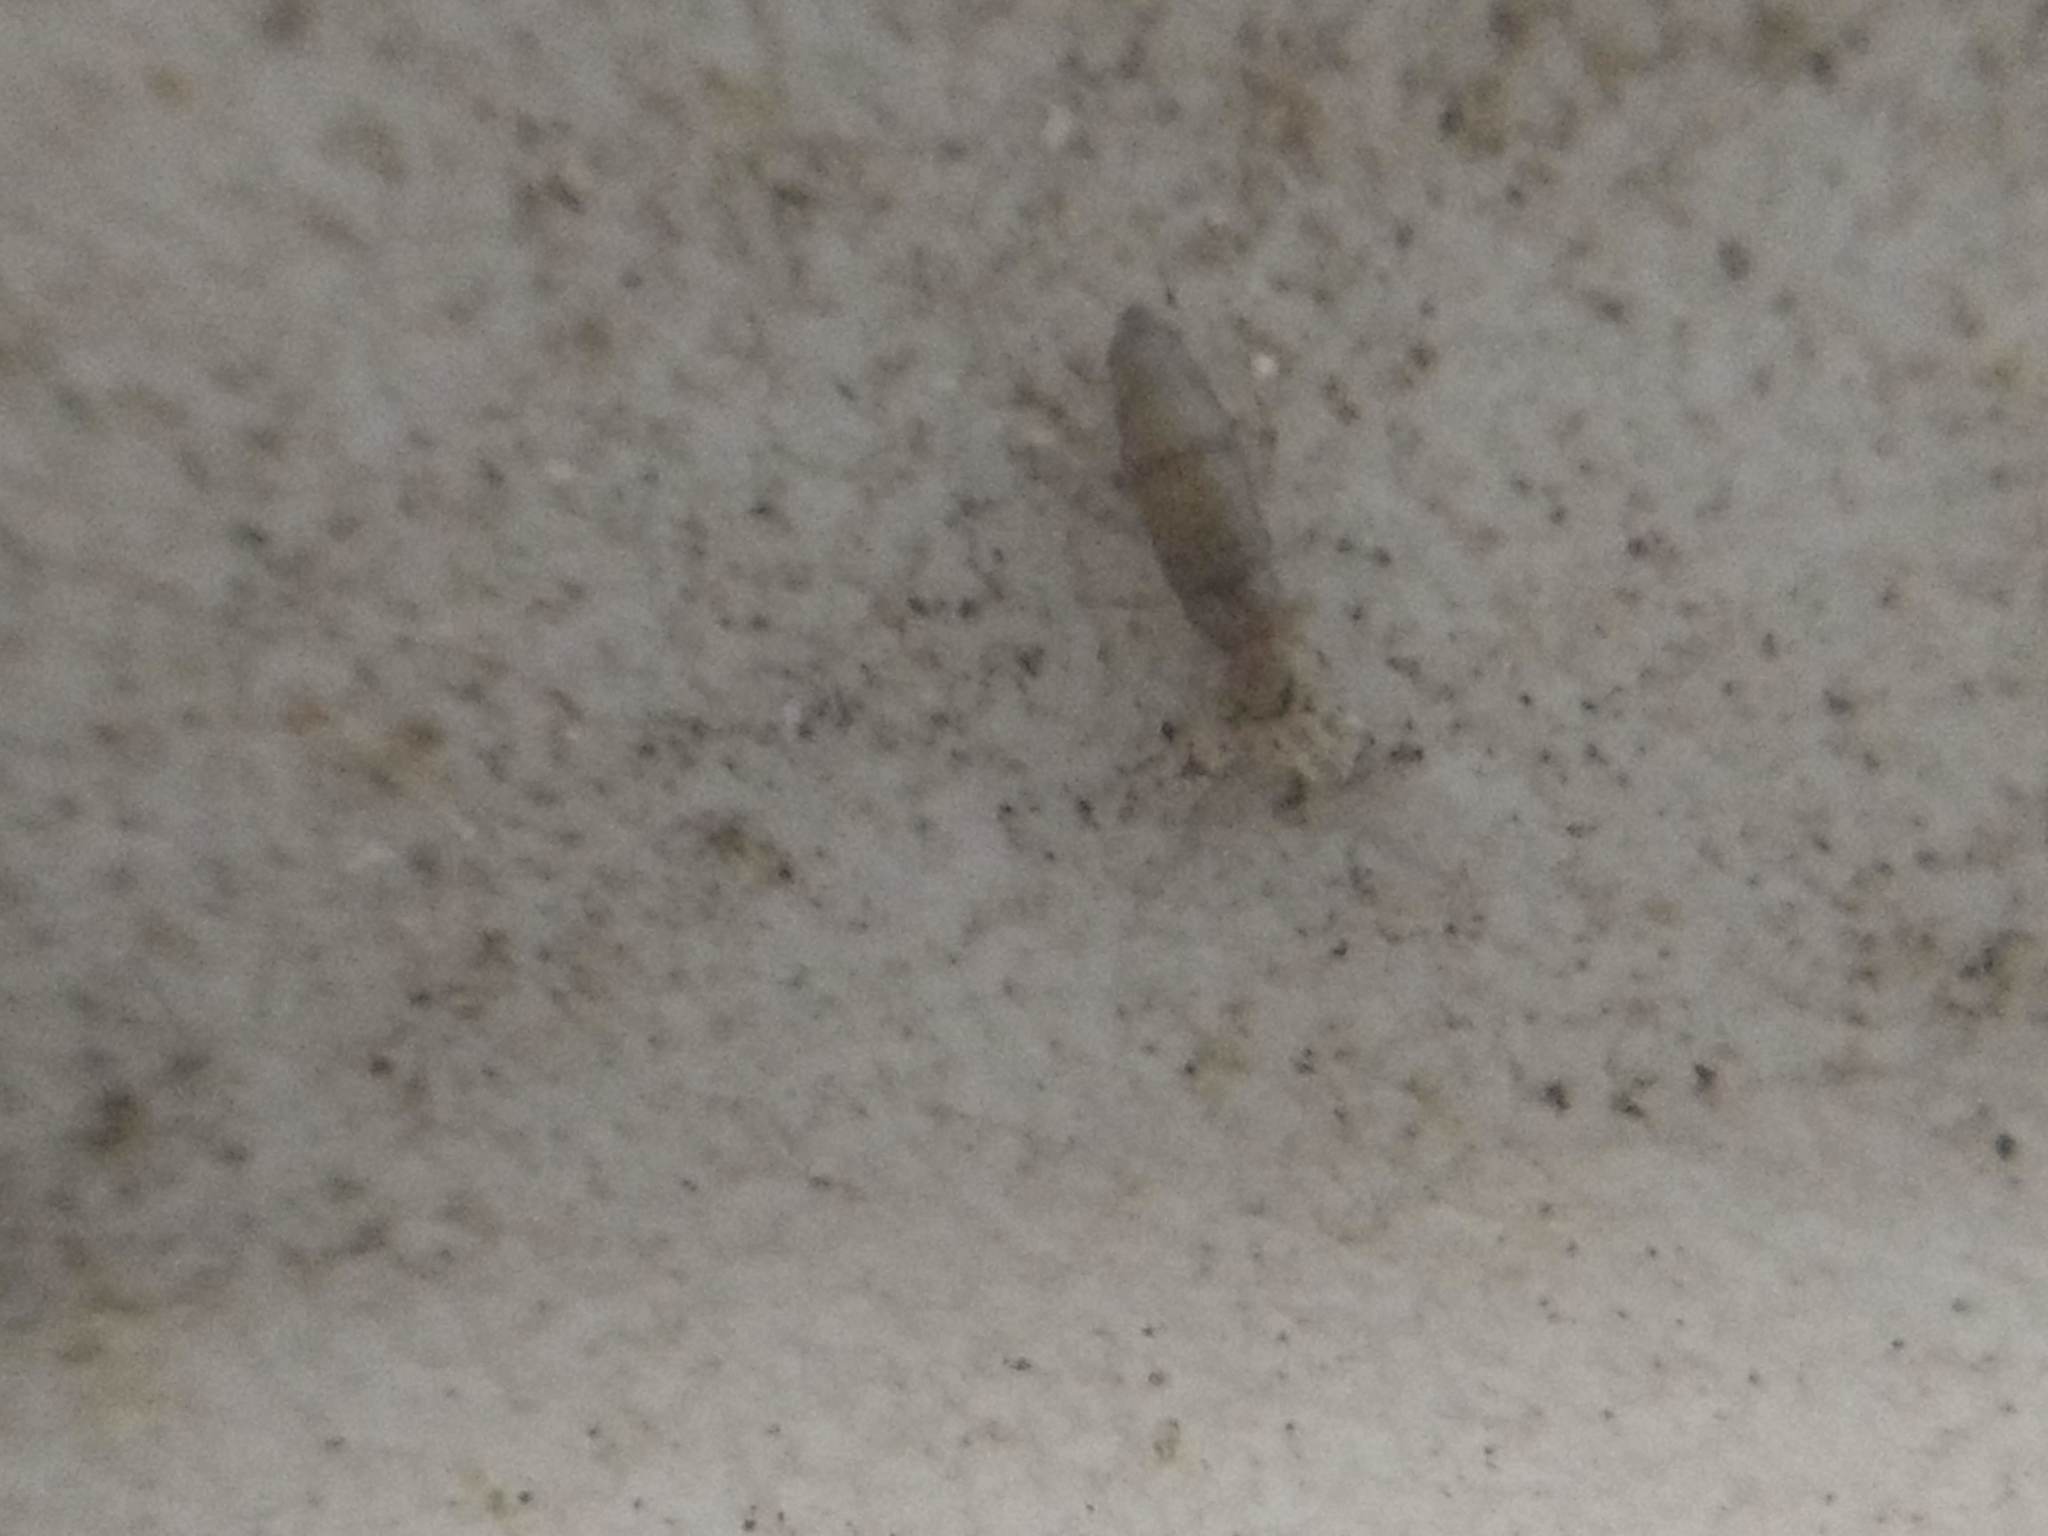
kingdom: Animalia
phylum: Arthropoda
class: Collembola
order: Entomobryomorpha
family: Entomobryidae
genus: Willowsia
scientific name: Willowsia nigromaculata
